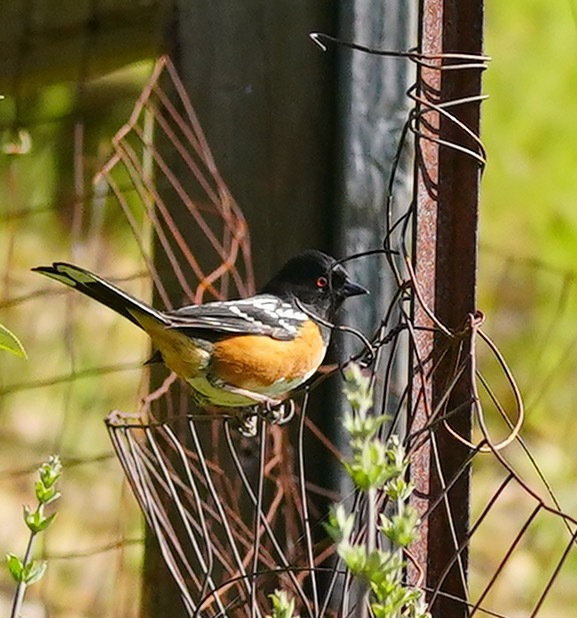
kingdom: Animalia
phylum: Chordata
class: Aves
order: Passeriformes
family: Passerellidae
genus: Pipilo
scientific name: Pipilo maculatus
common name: Spotted towhee
